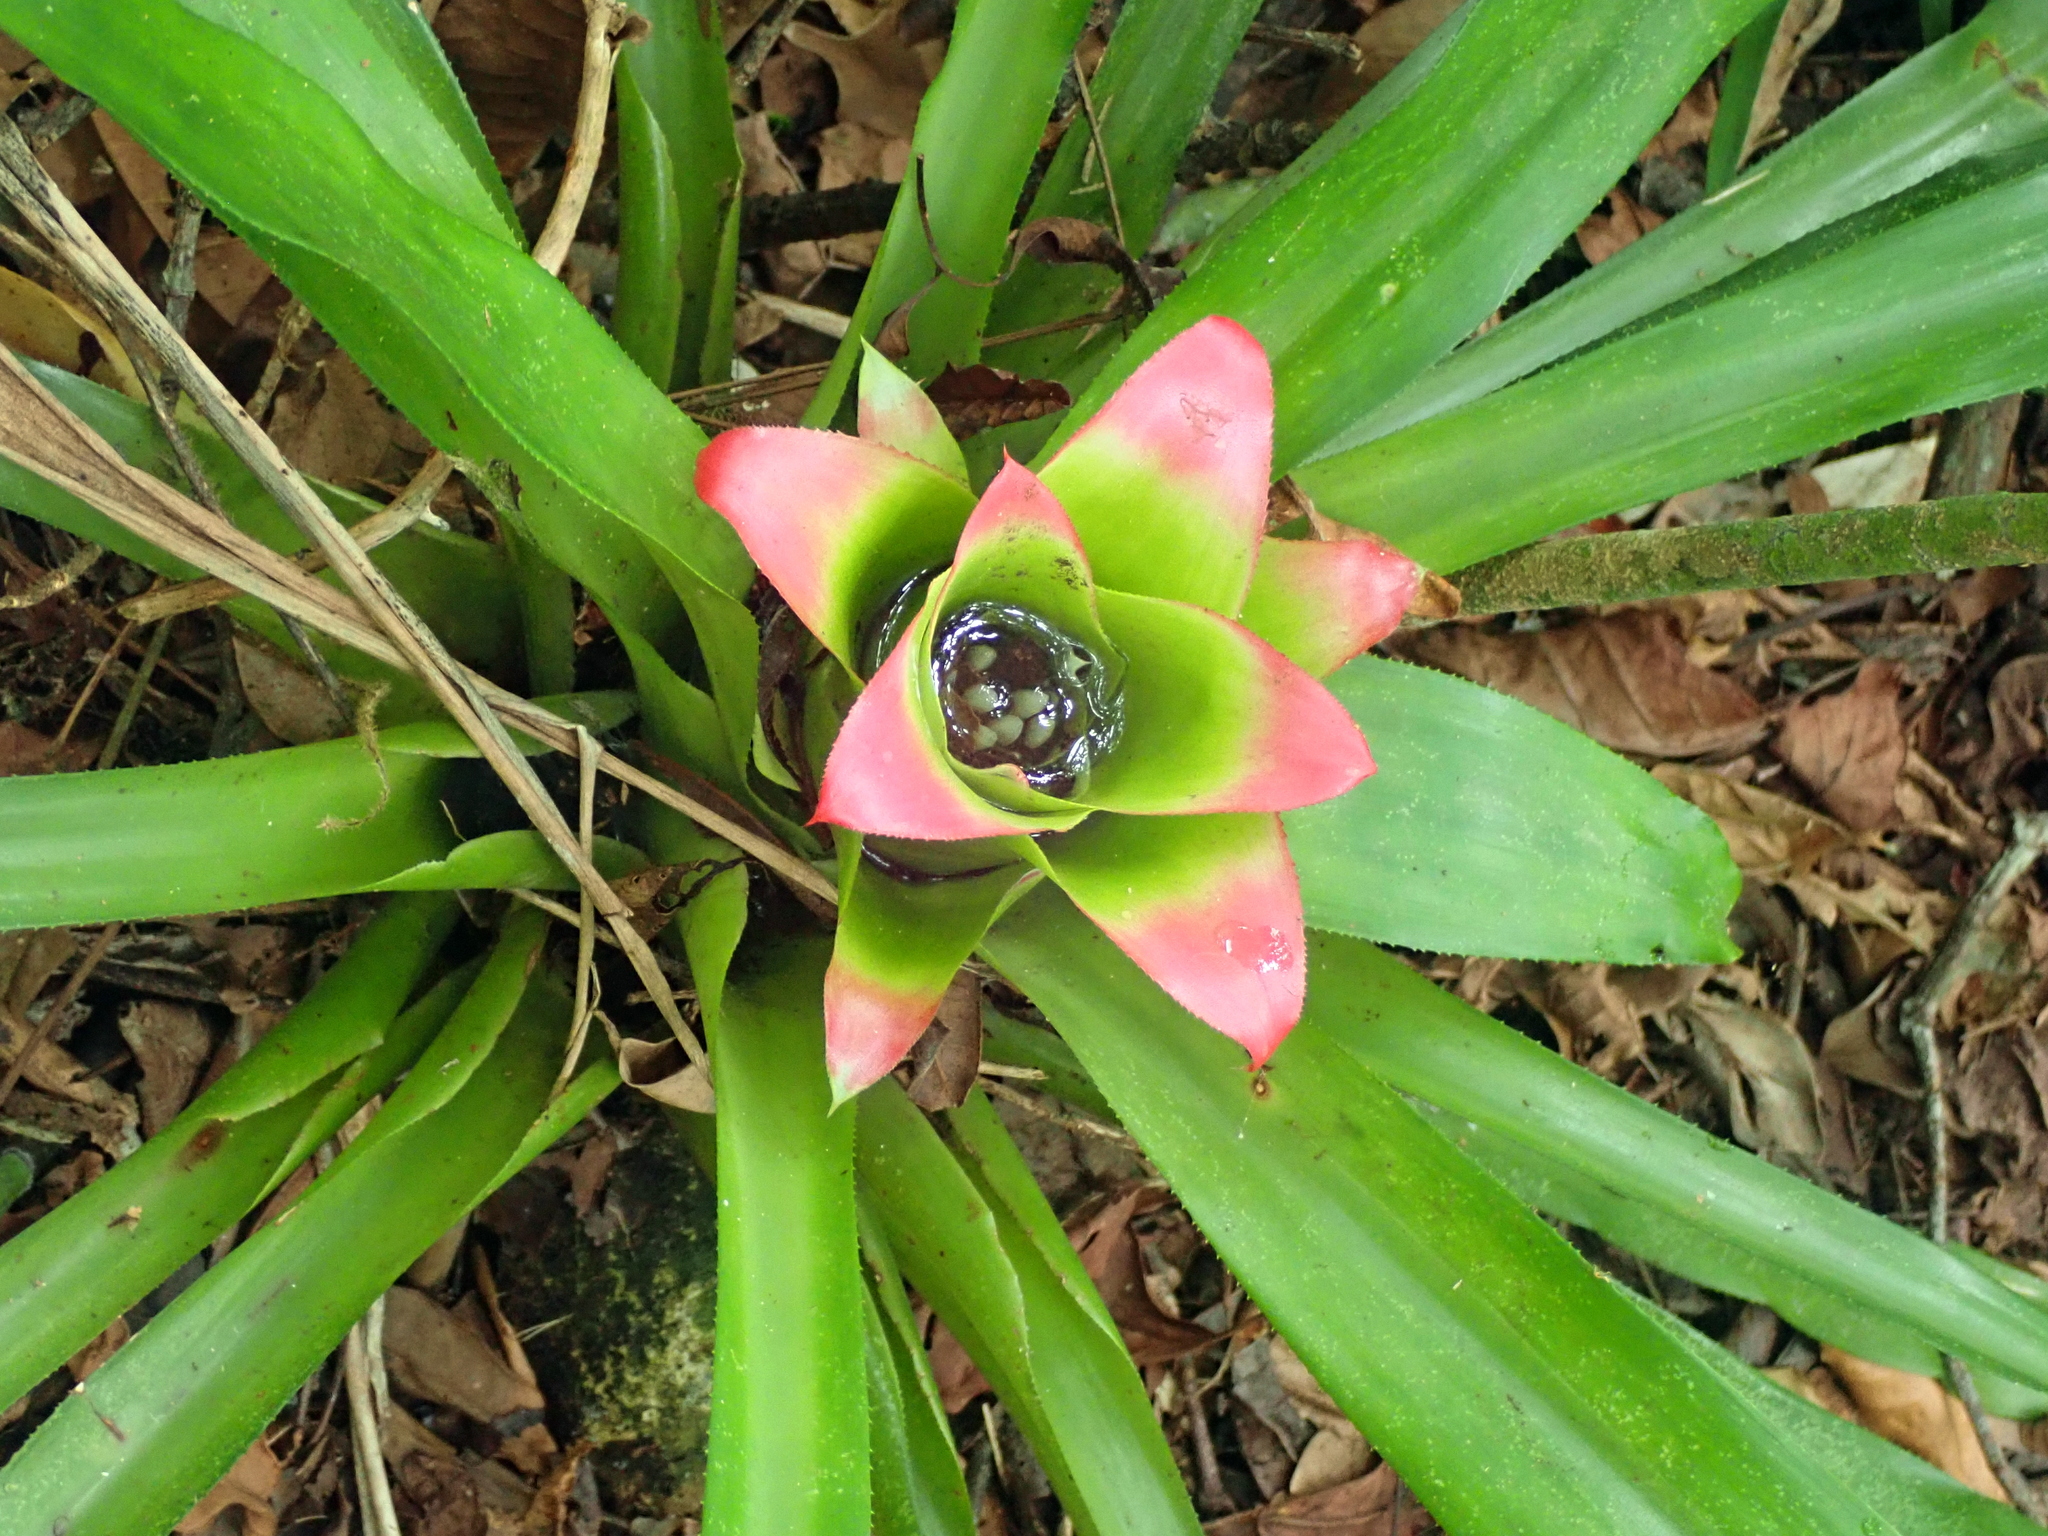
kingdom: Plantae
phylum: Tracheophyta
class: Liliopsida
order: Poales
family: Bromeliaceae
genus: Nidularium
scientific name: Nidularium innocentii
